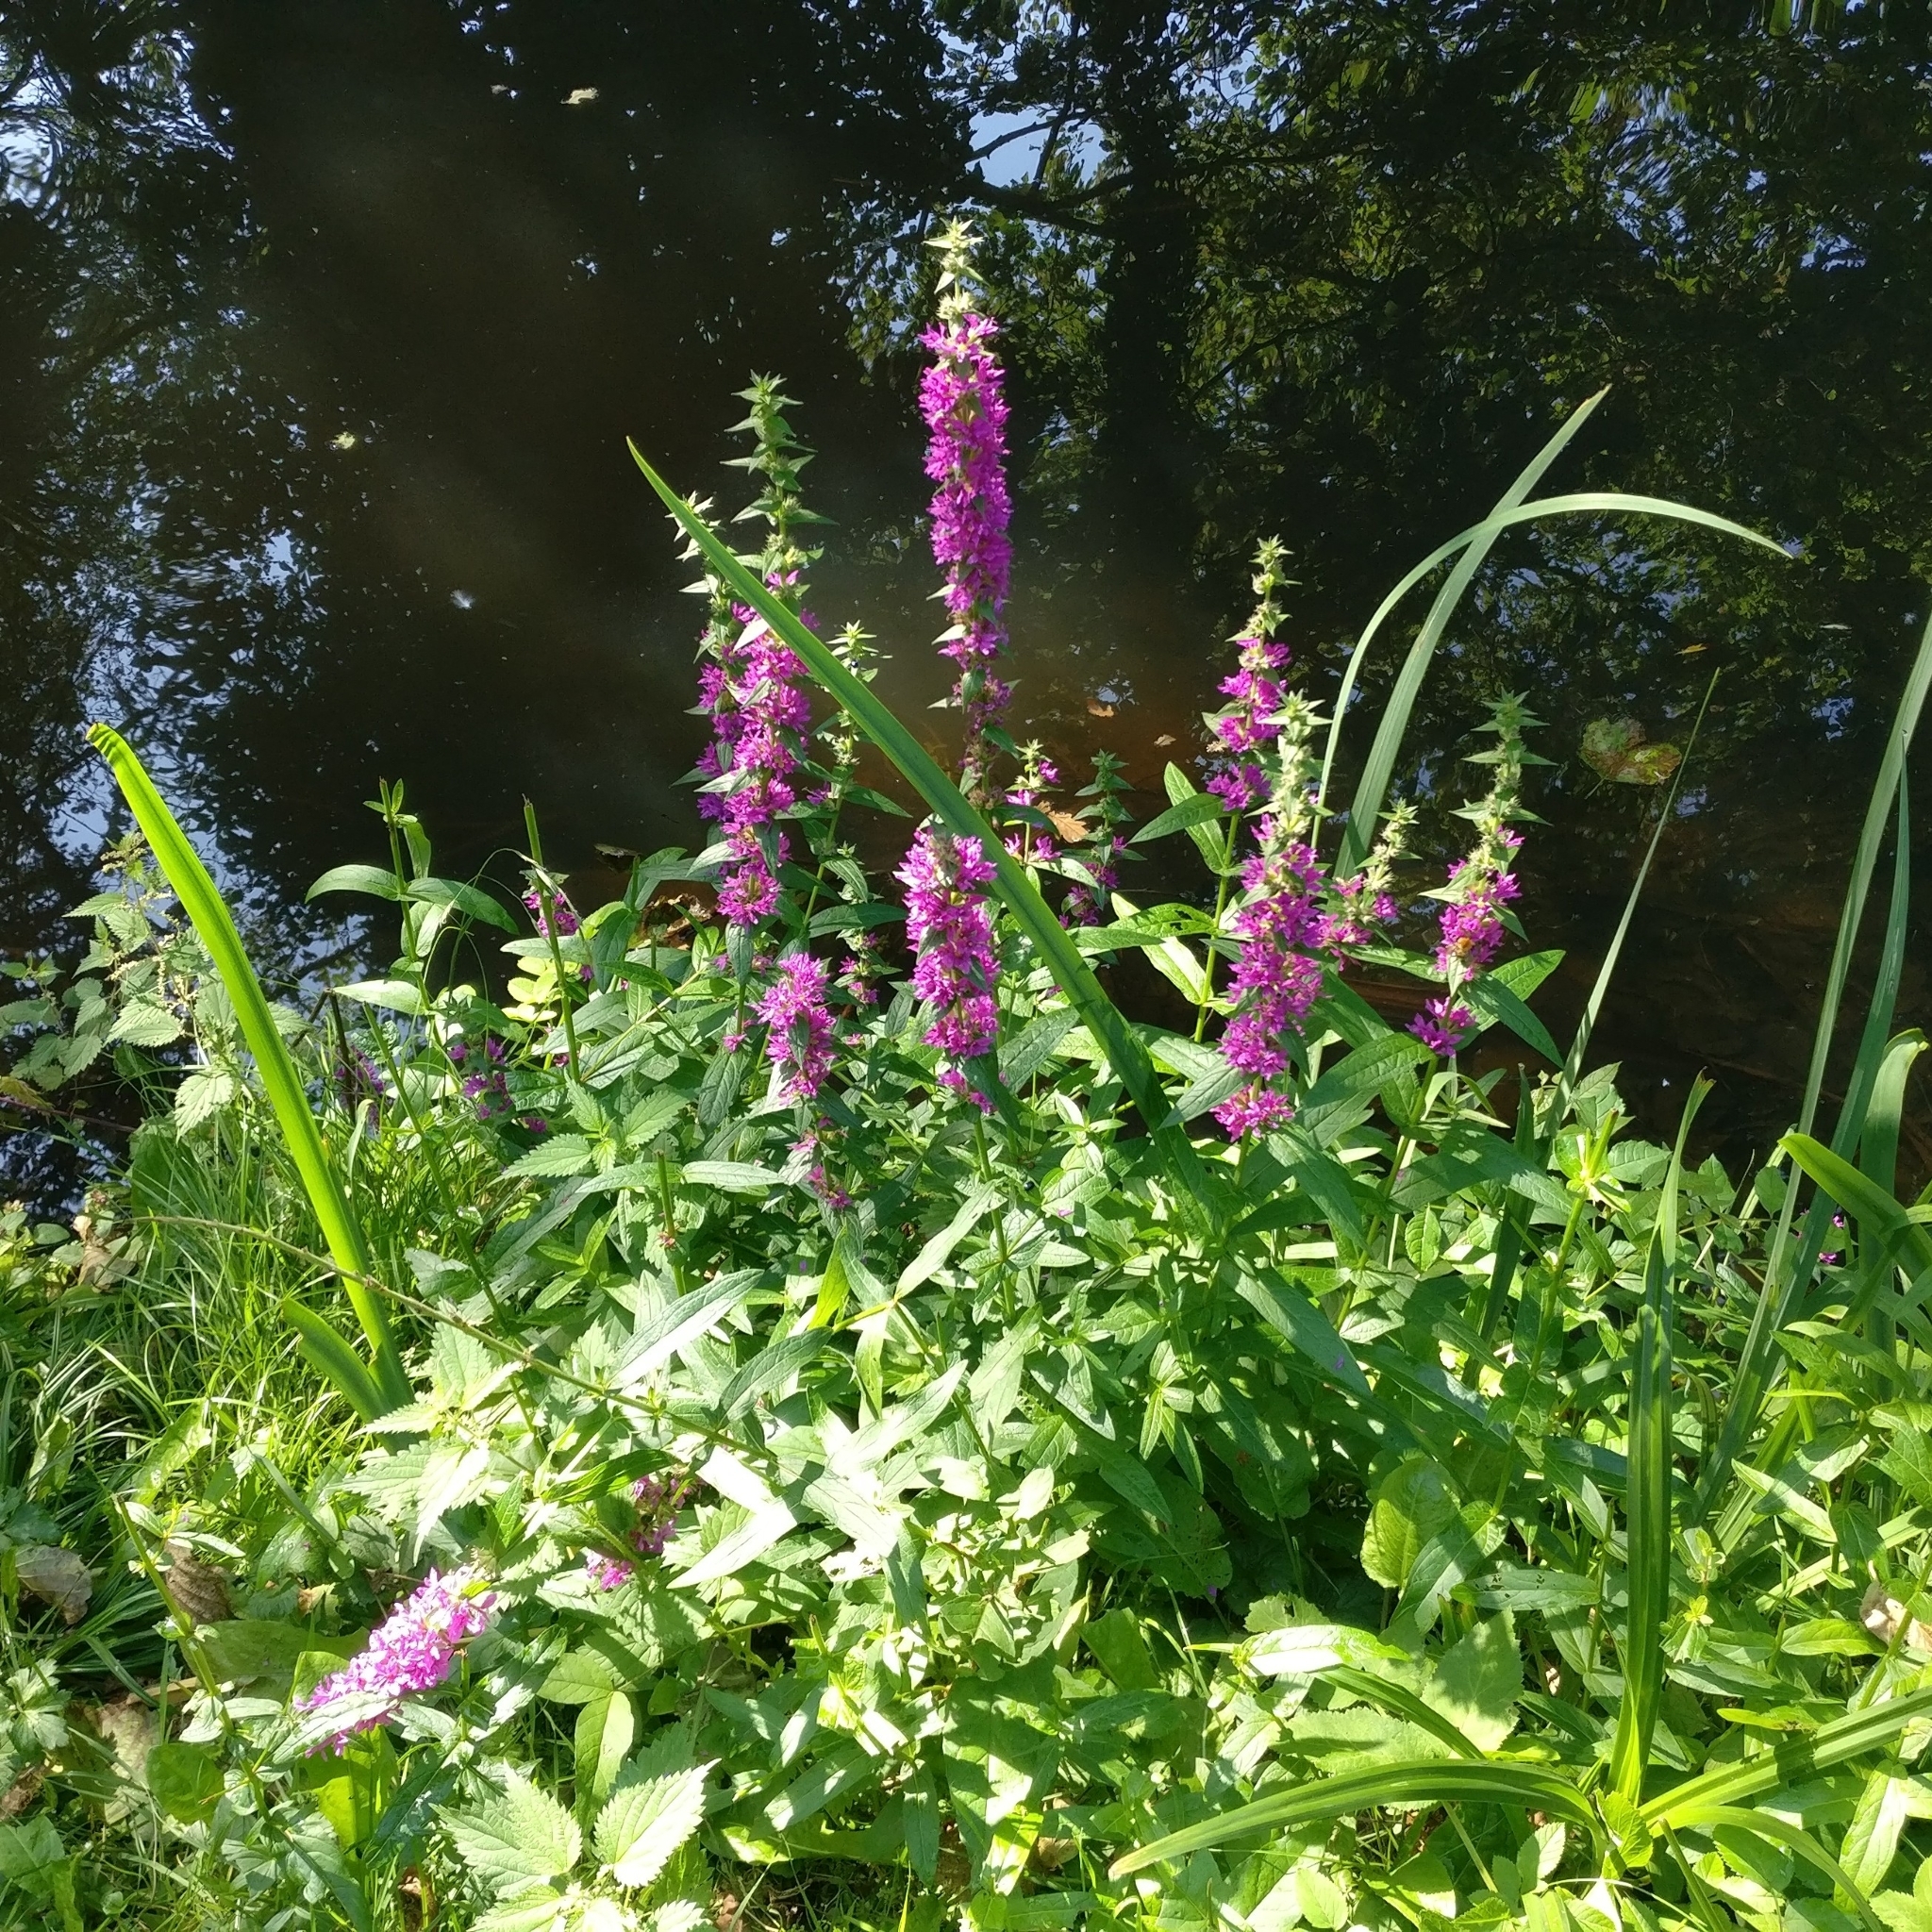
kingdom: Plantae
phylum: Tracheophyta
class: Magnoliopsida
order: Myrtales
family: Lythraceae
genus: Lythrum
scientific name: Lythrum salicaria
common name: Purple loosestrife
